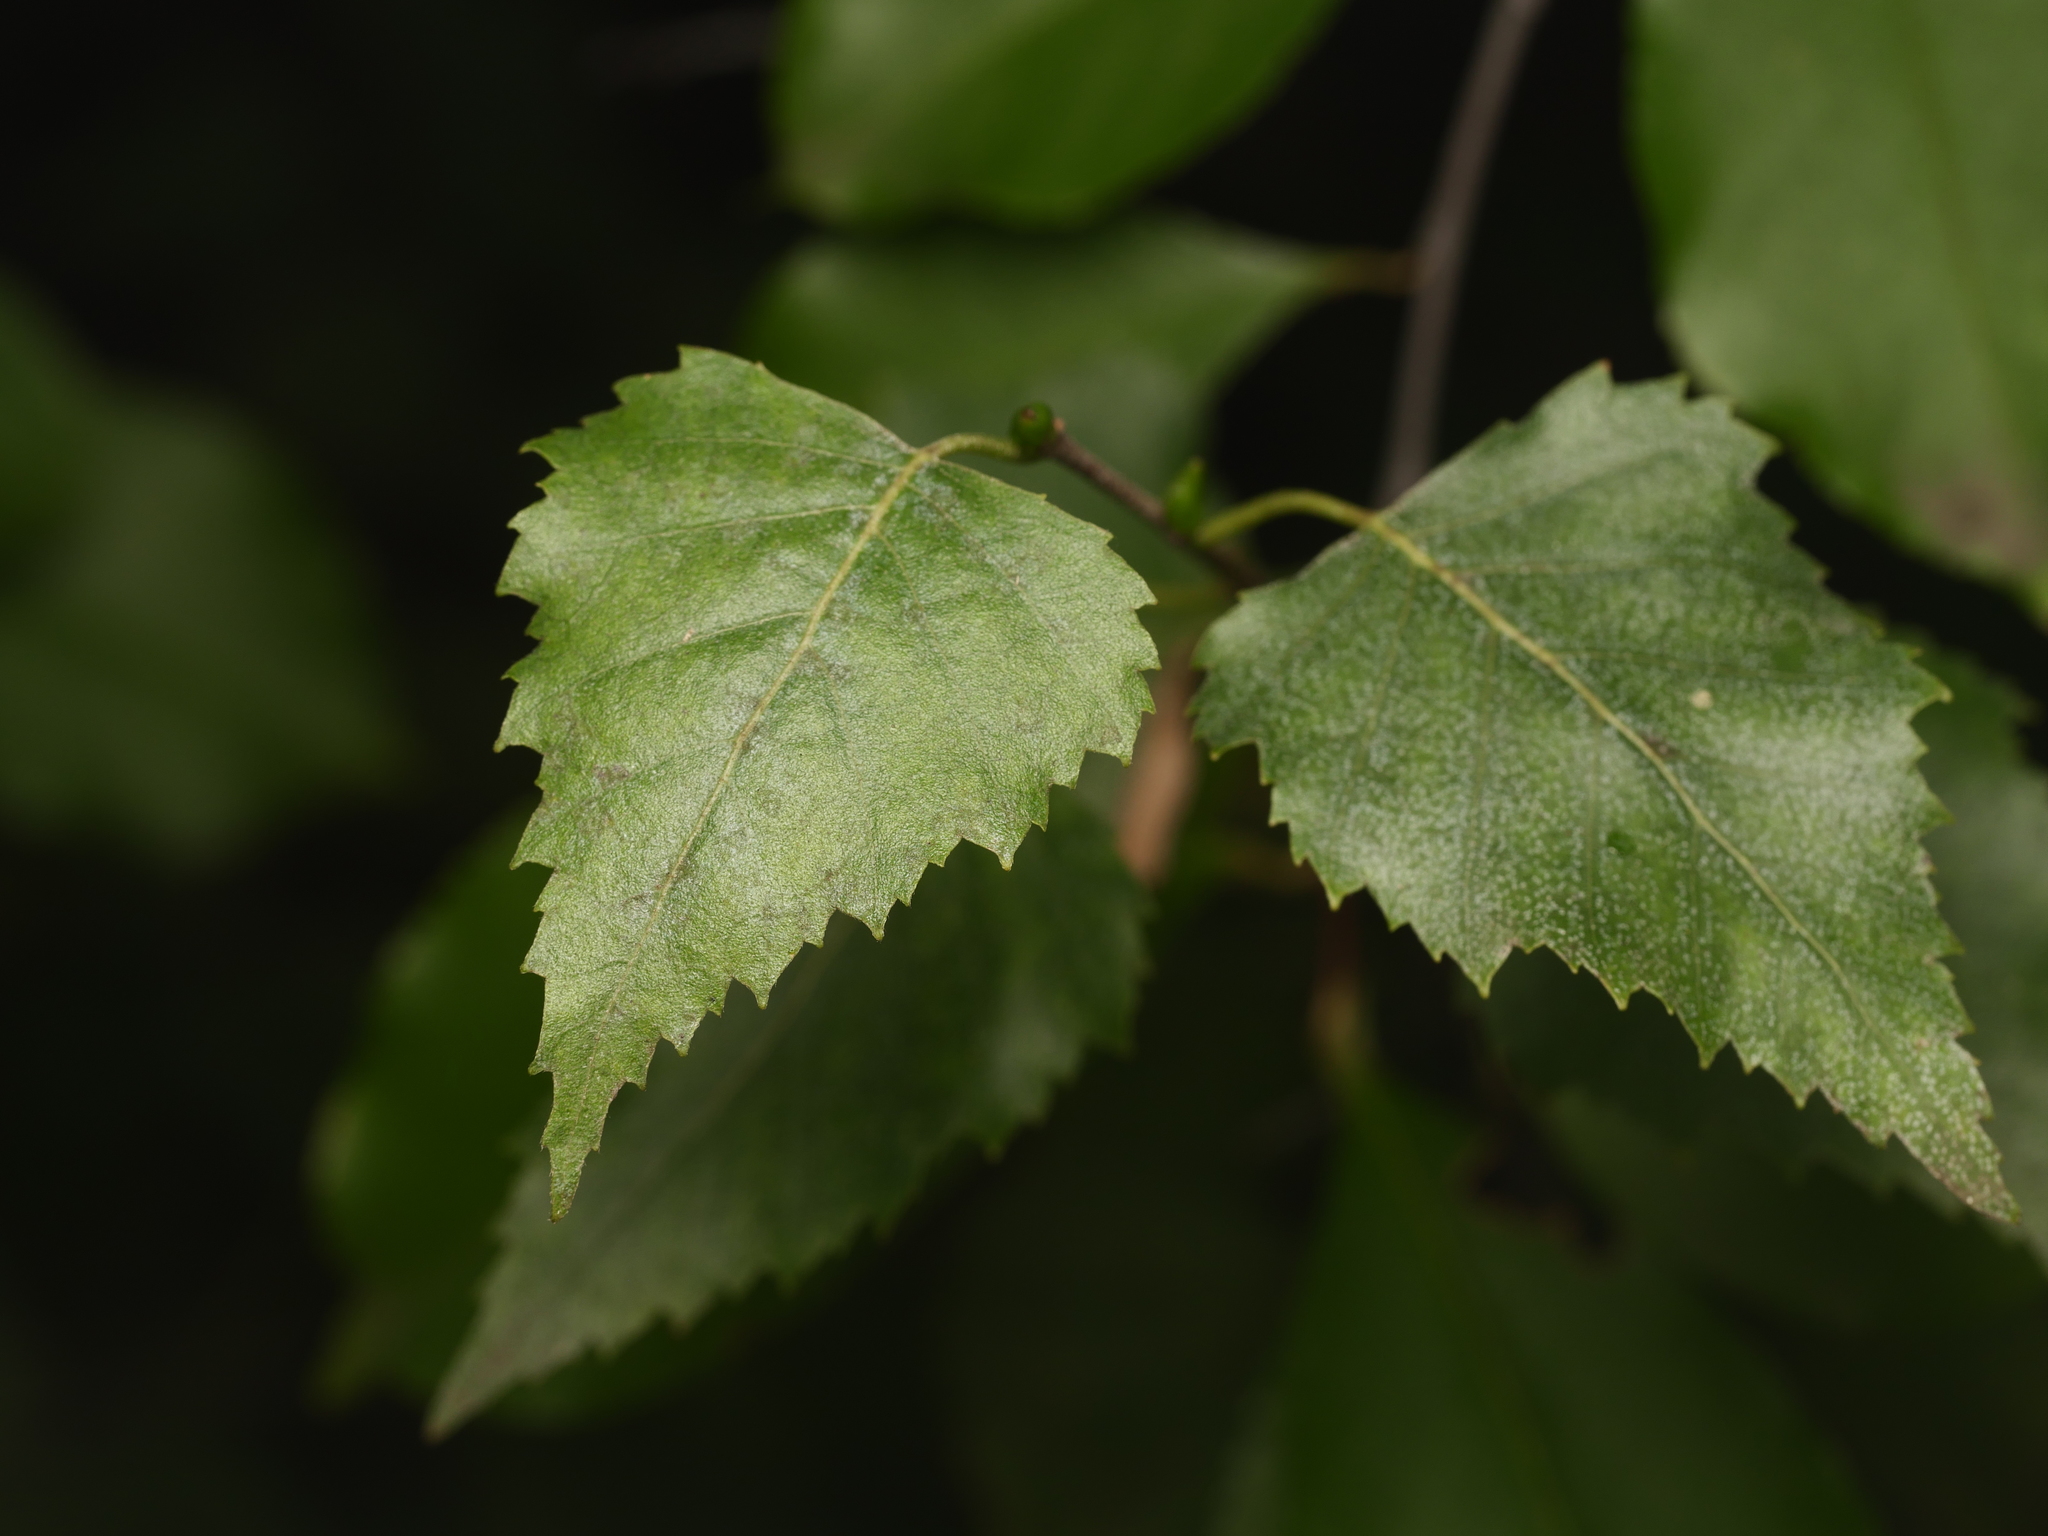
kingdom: Plantae
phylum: Tracheophyta
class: Magnoliopsida
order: Fagales
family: Betulaceae
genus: Betula
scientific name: Betula pendula
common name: Silver birch
